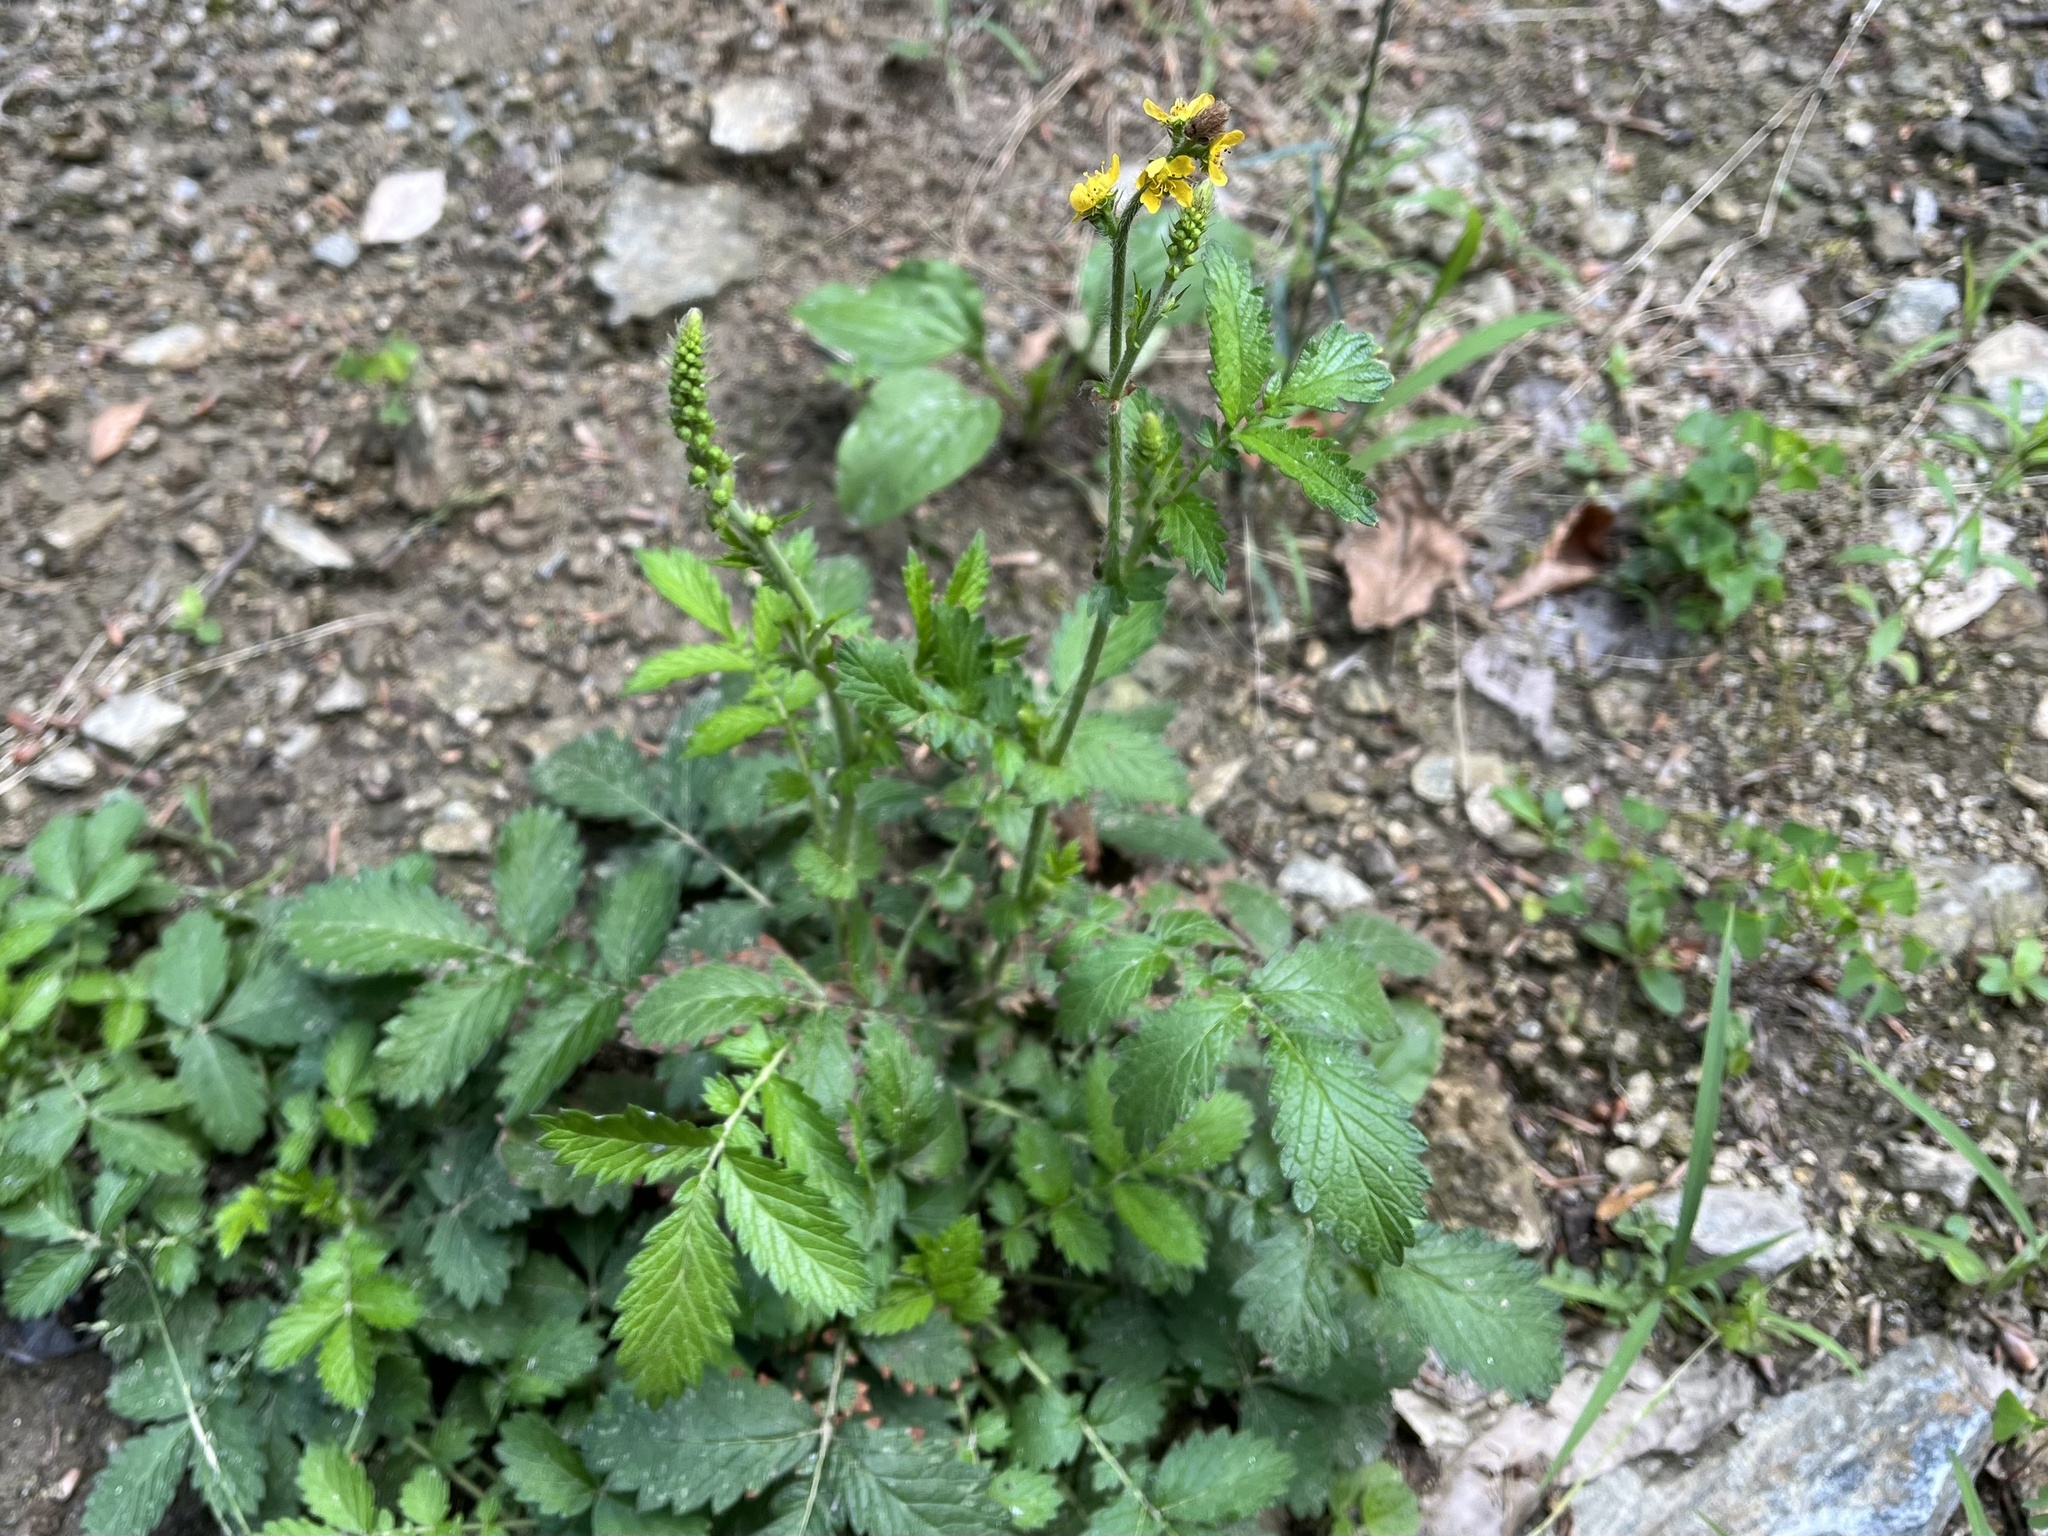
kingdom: Plantae
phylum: Tracheophyta
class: Magnoliopsida
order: Rosales
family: Rosaceae
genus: Agrimonia
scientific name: Agrimonia eupatoria
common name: Agrimony
